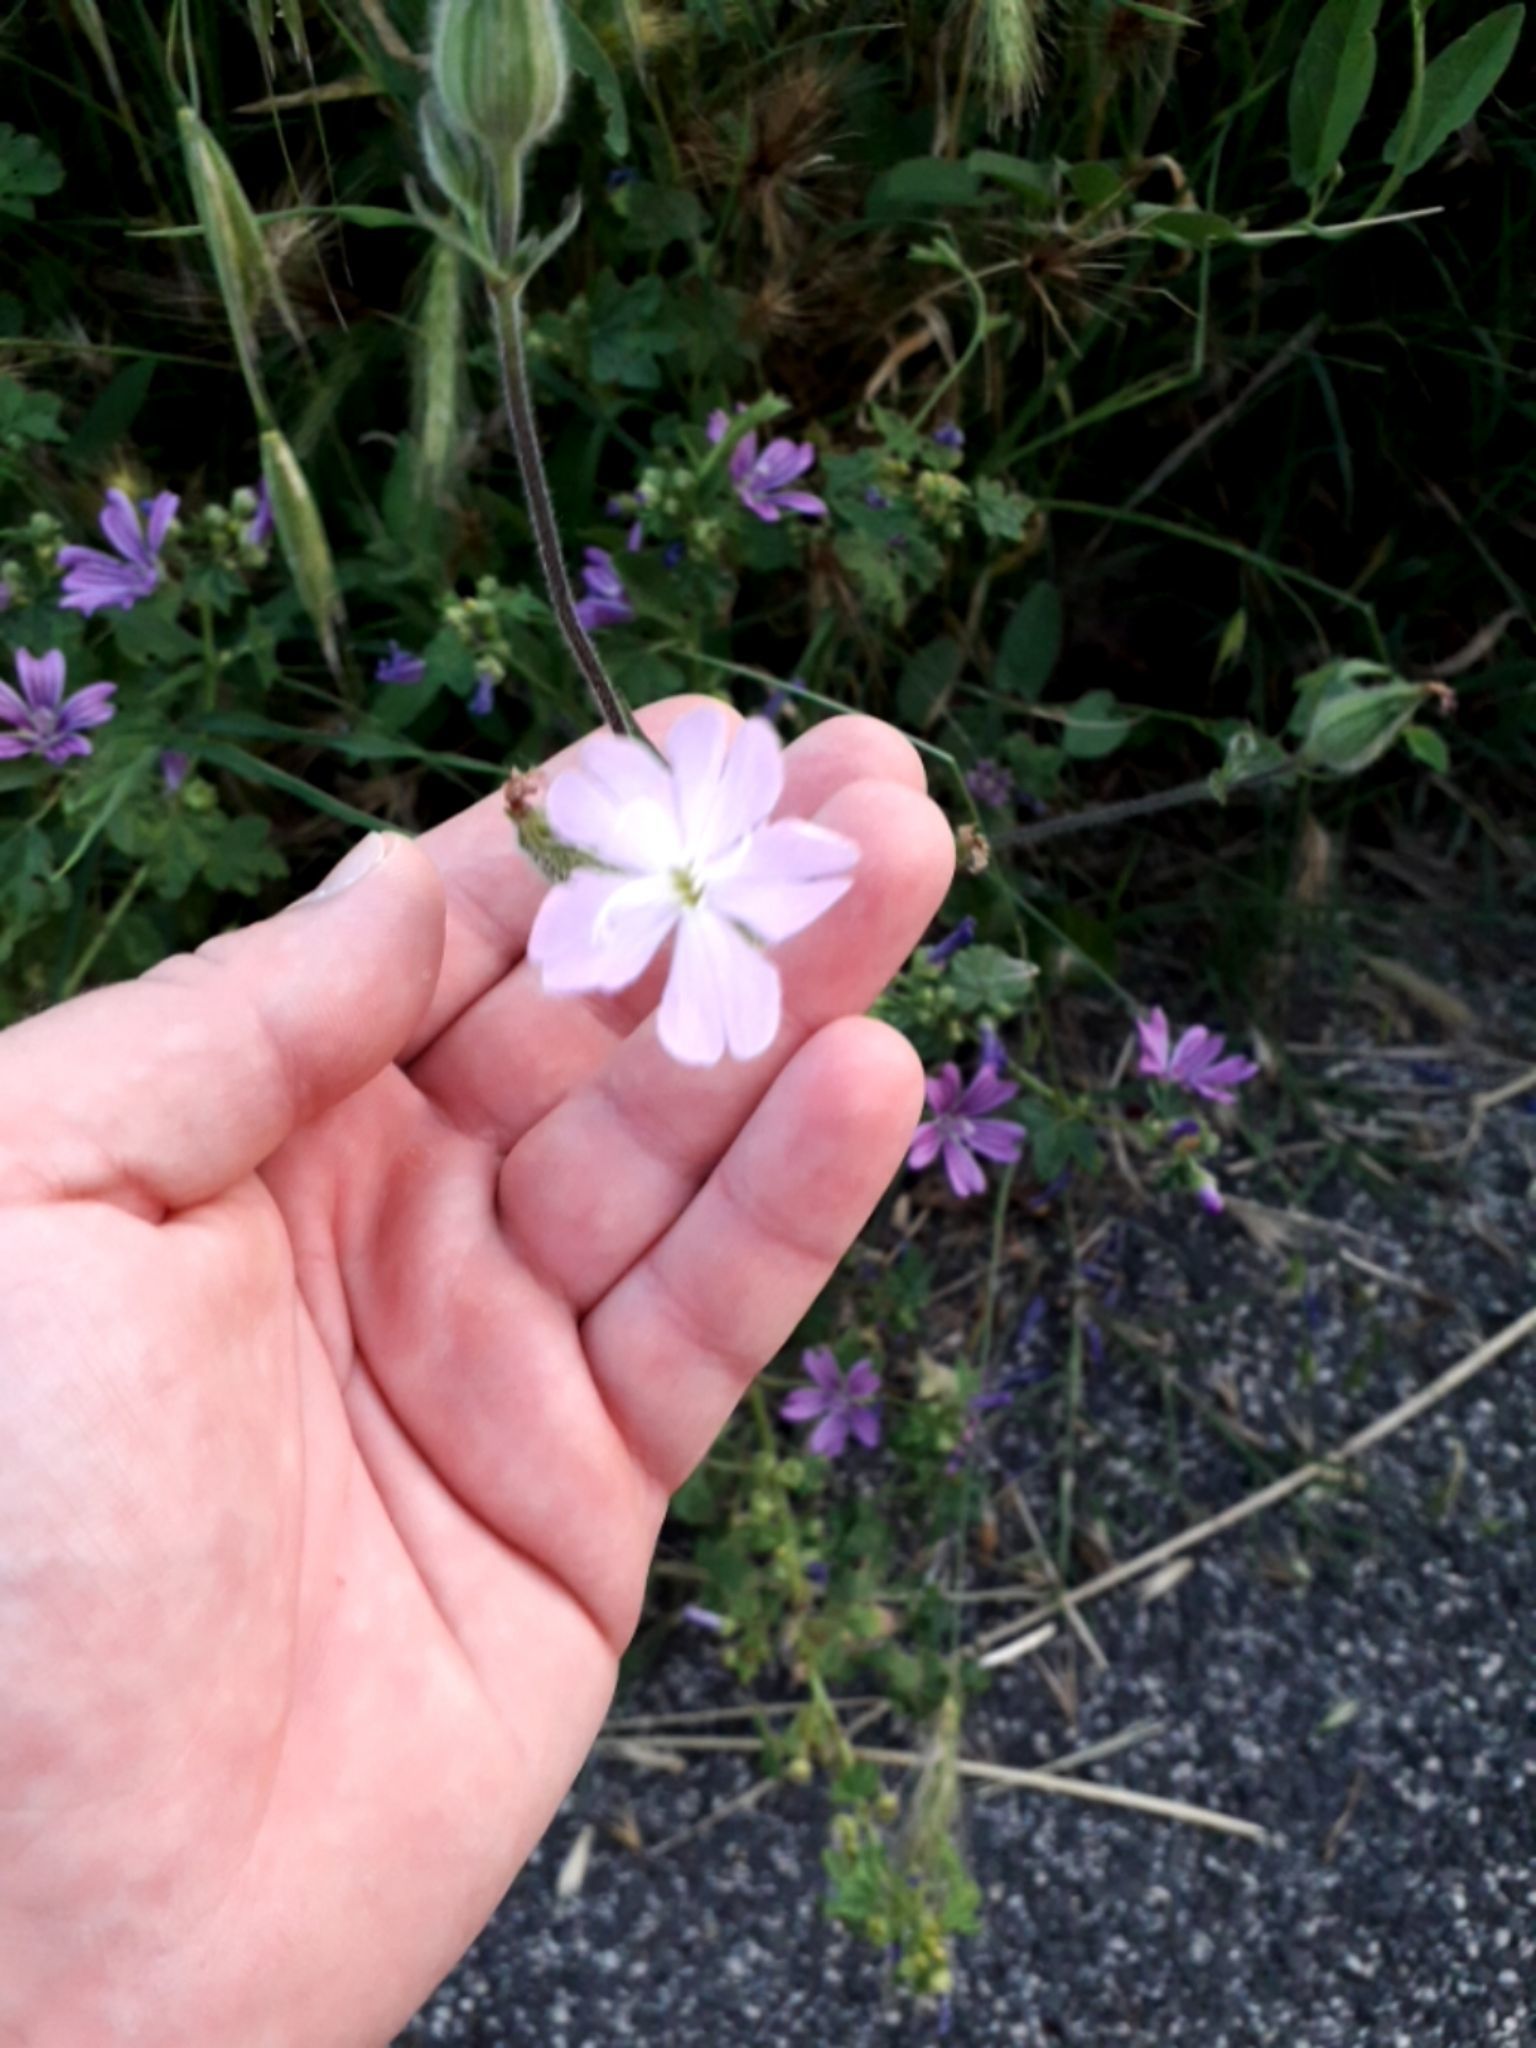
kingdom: Plantae
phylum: Tracheophyta
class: Magnoliopsida
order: Caryophyllales
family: Caryophyllaceae
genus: Silene
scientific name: Silene latifolia
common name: White campion
